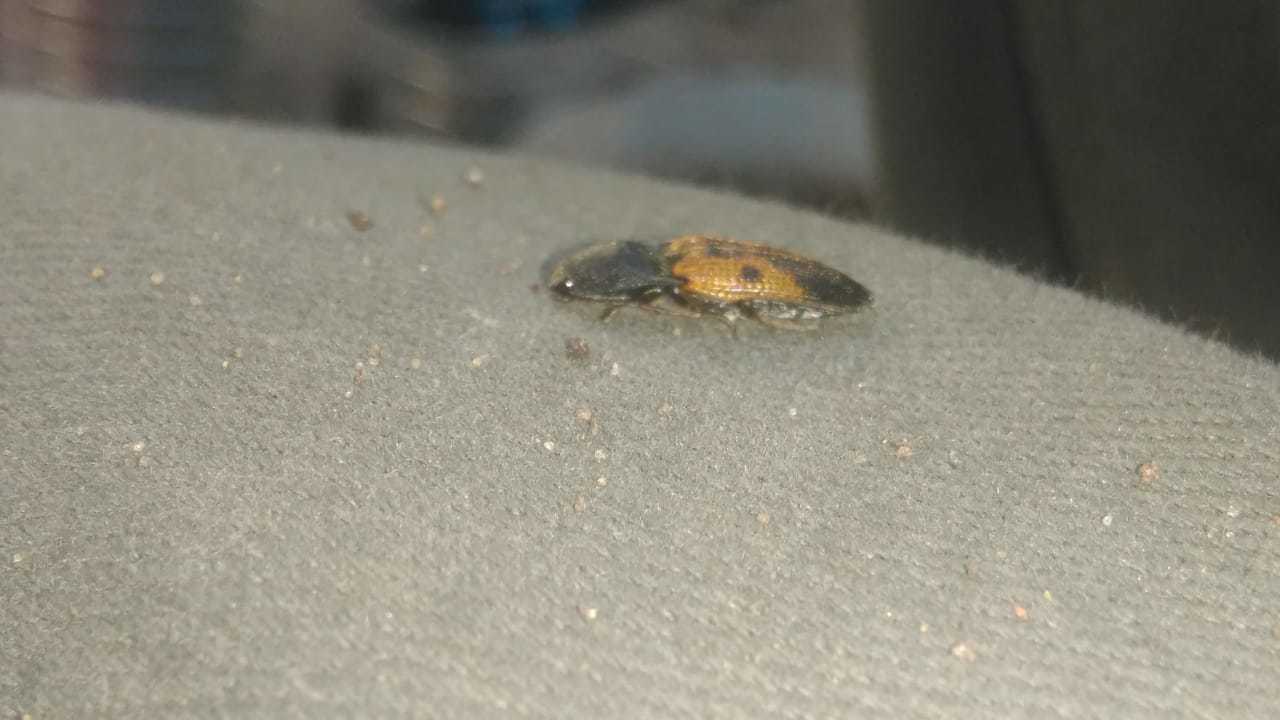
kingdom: Animalia
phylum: Arthropoda
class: Insecta
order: Coleoptera
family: Elateridae
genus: Monocrepidius
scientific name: Monocrepidius
